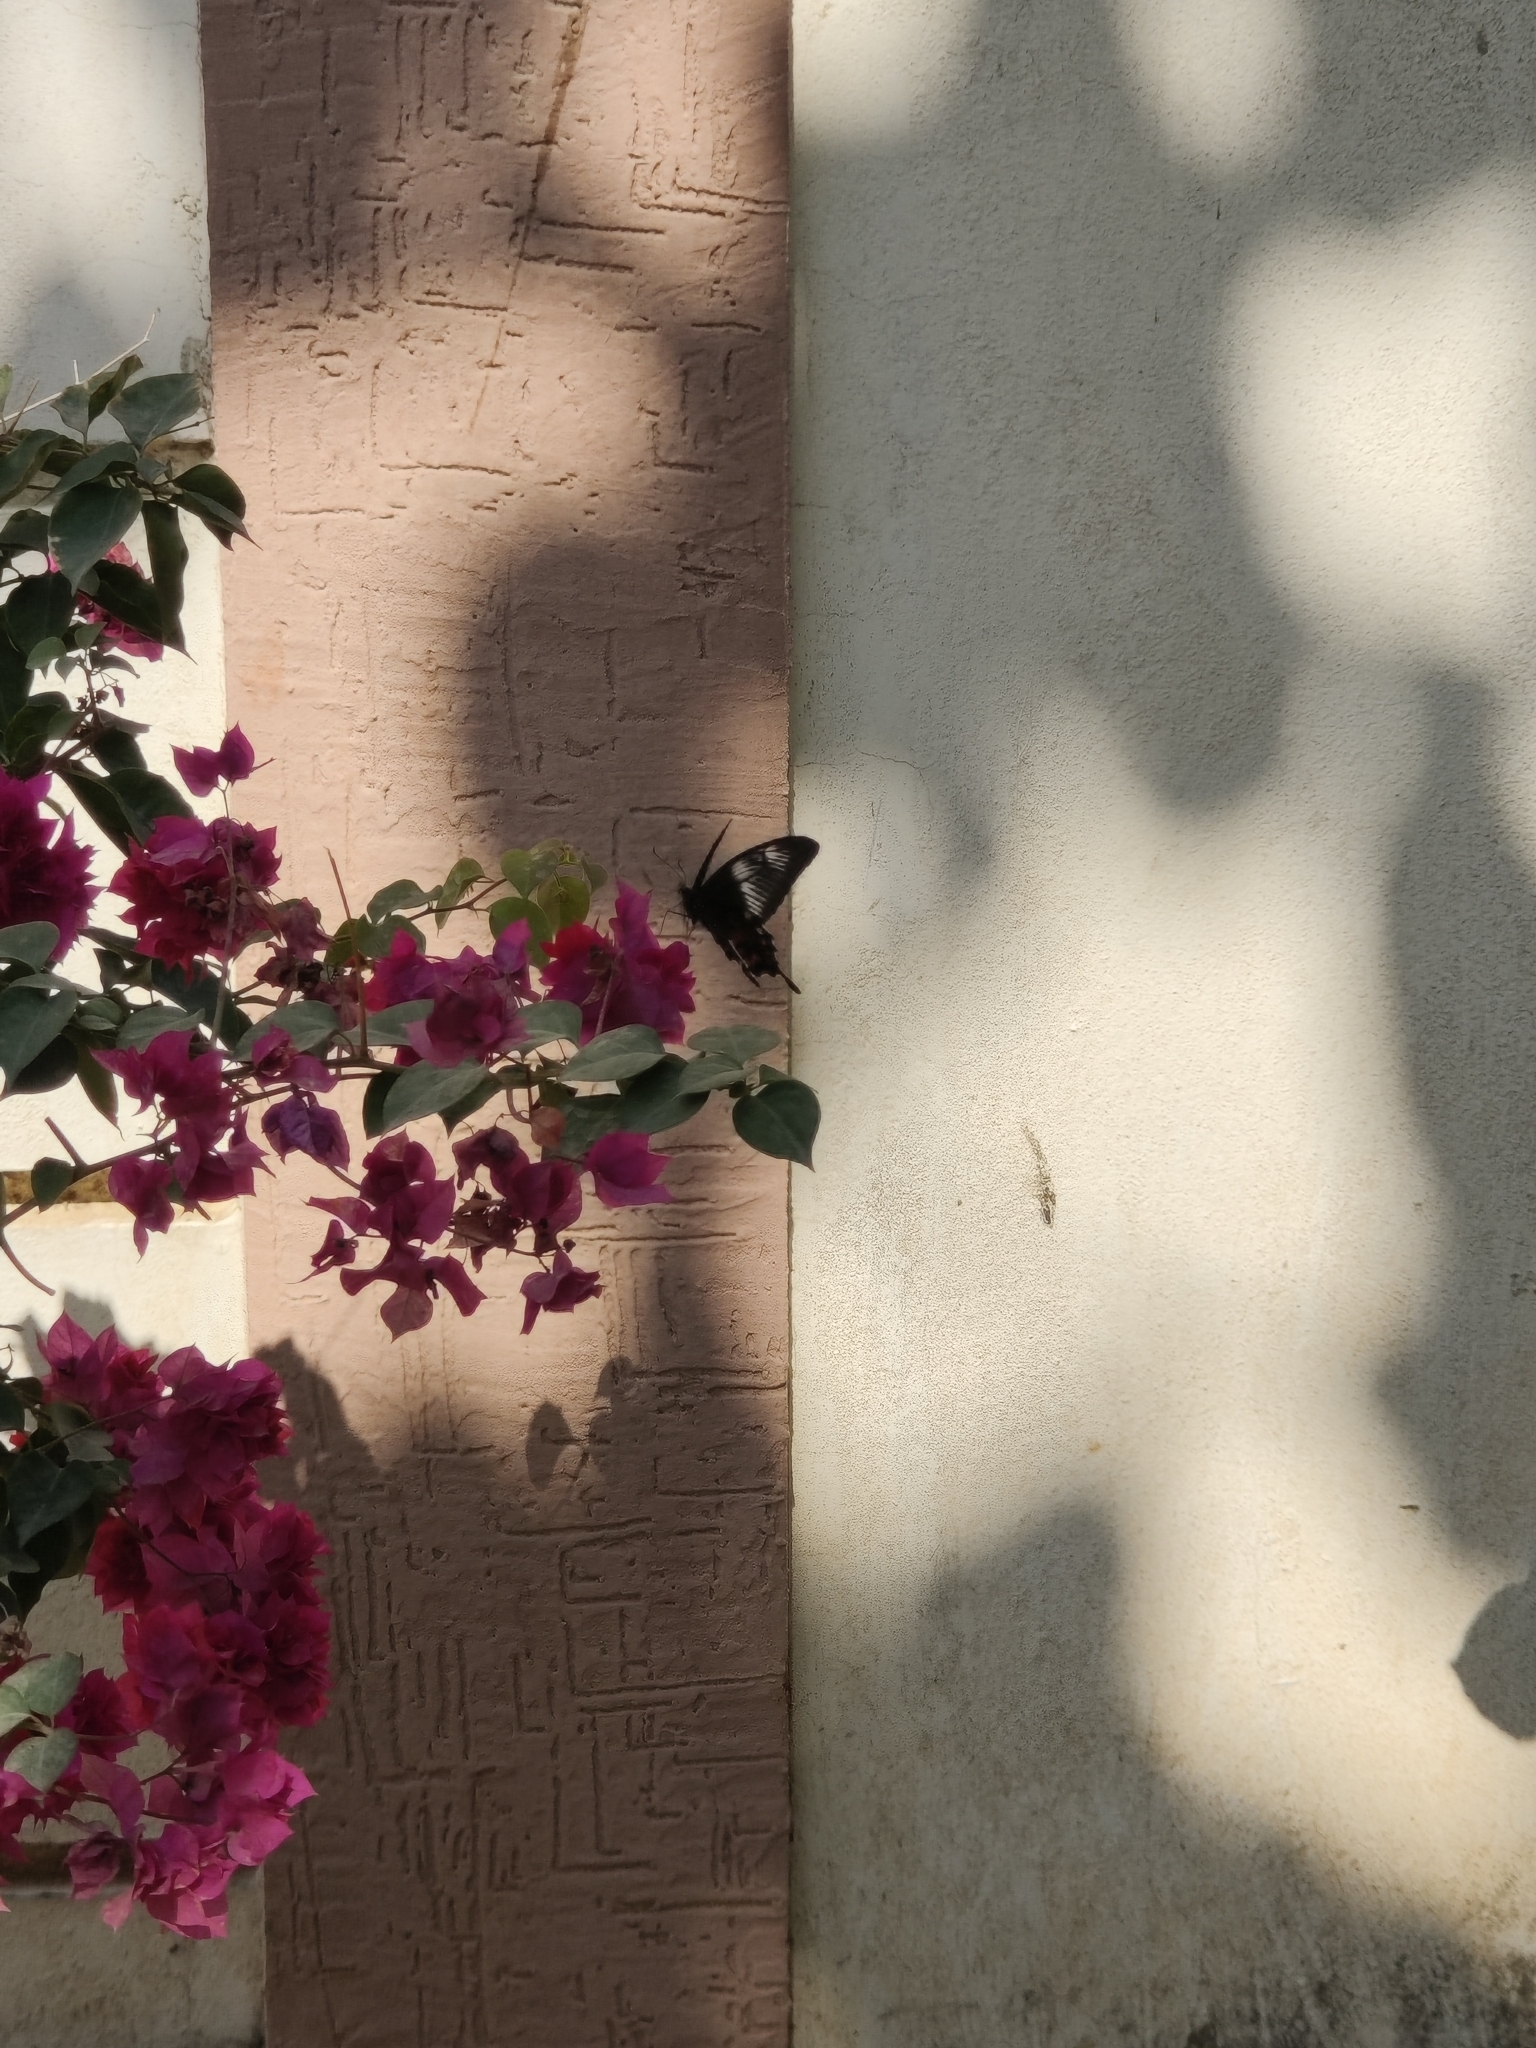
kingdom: Animalia
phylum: Arthropoda
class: Insecta
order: Lepidoptera
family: Papilionidae
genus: Papilio
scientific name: Papilio polytes
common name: Common mormon
